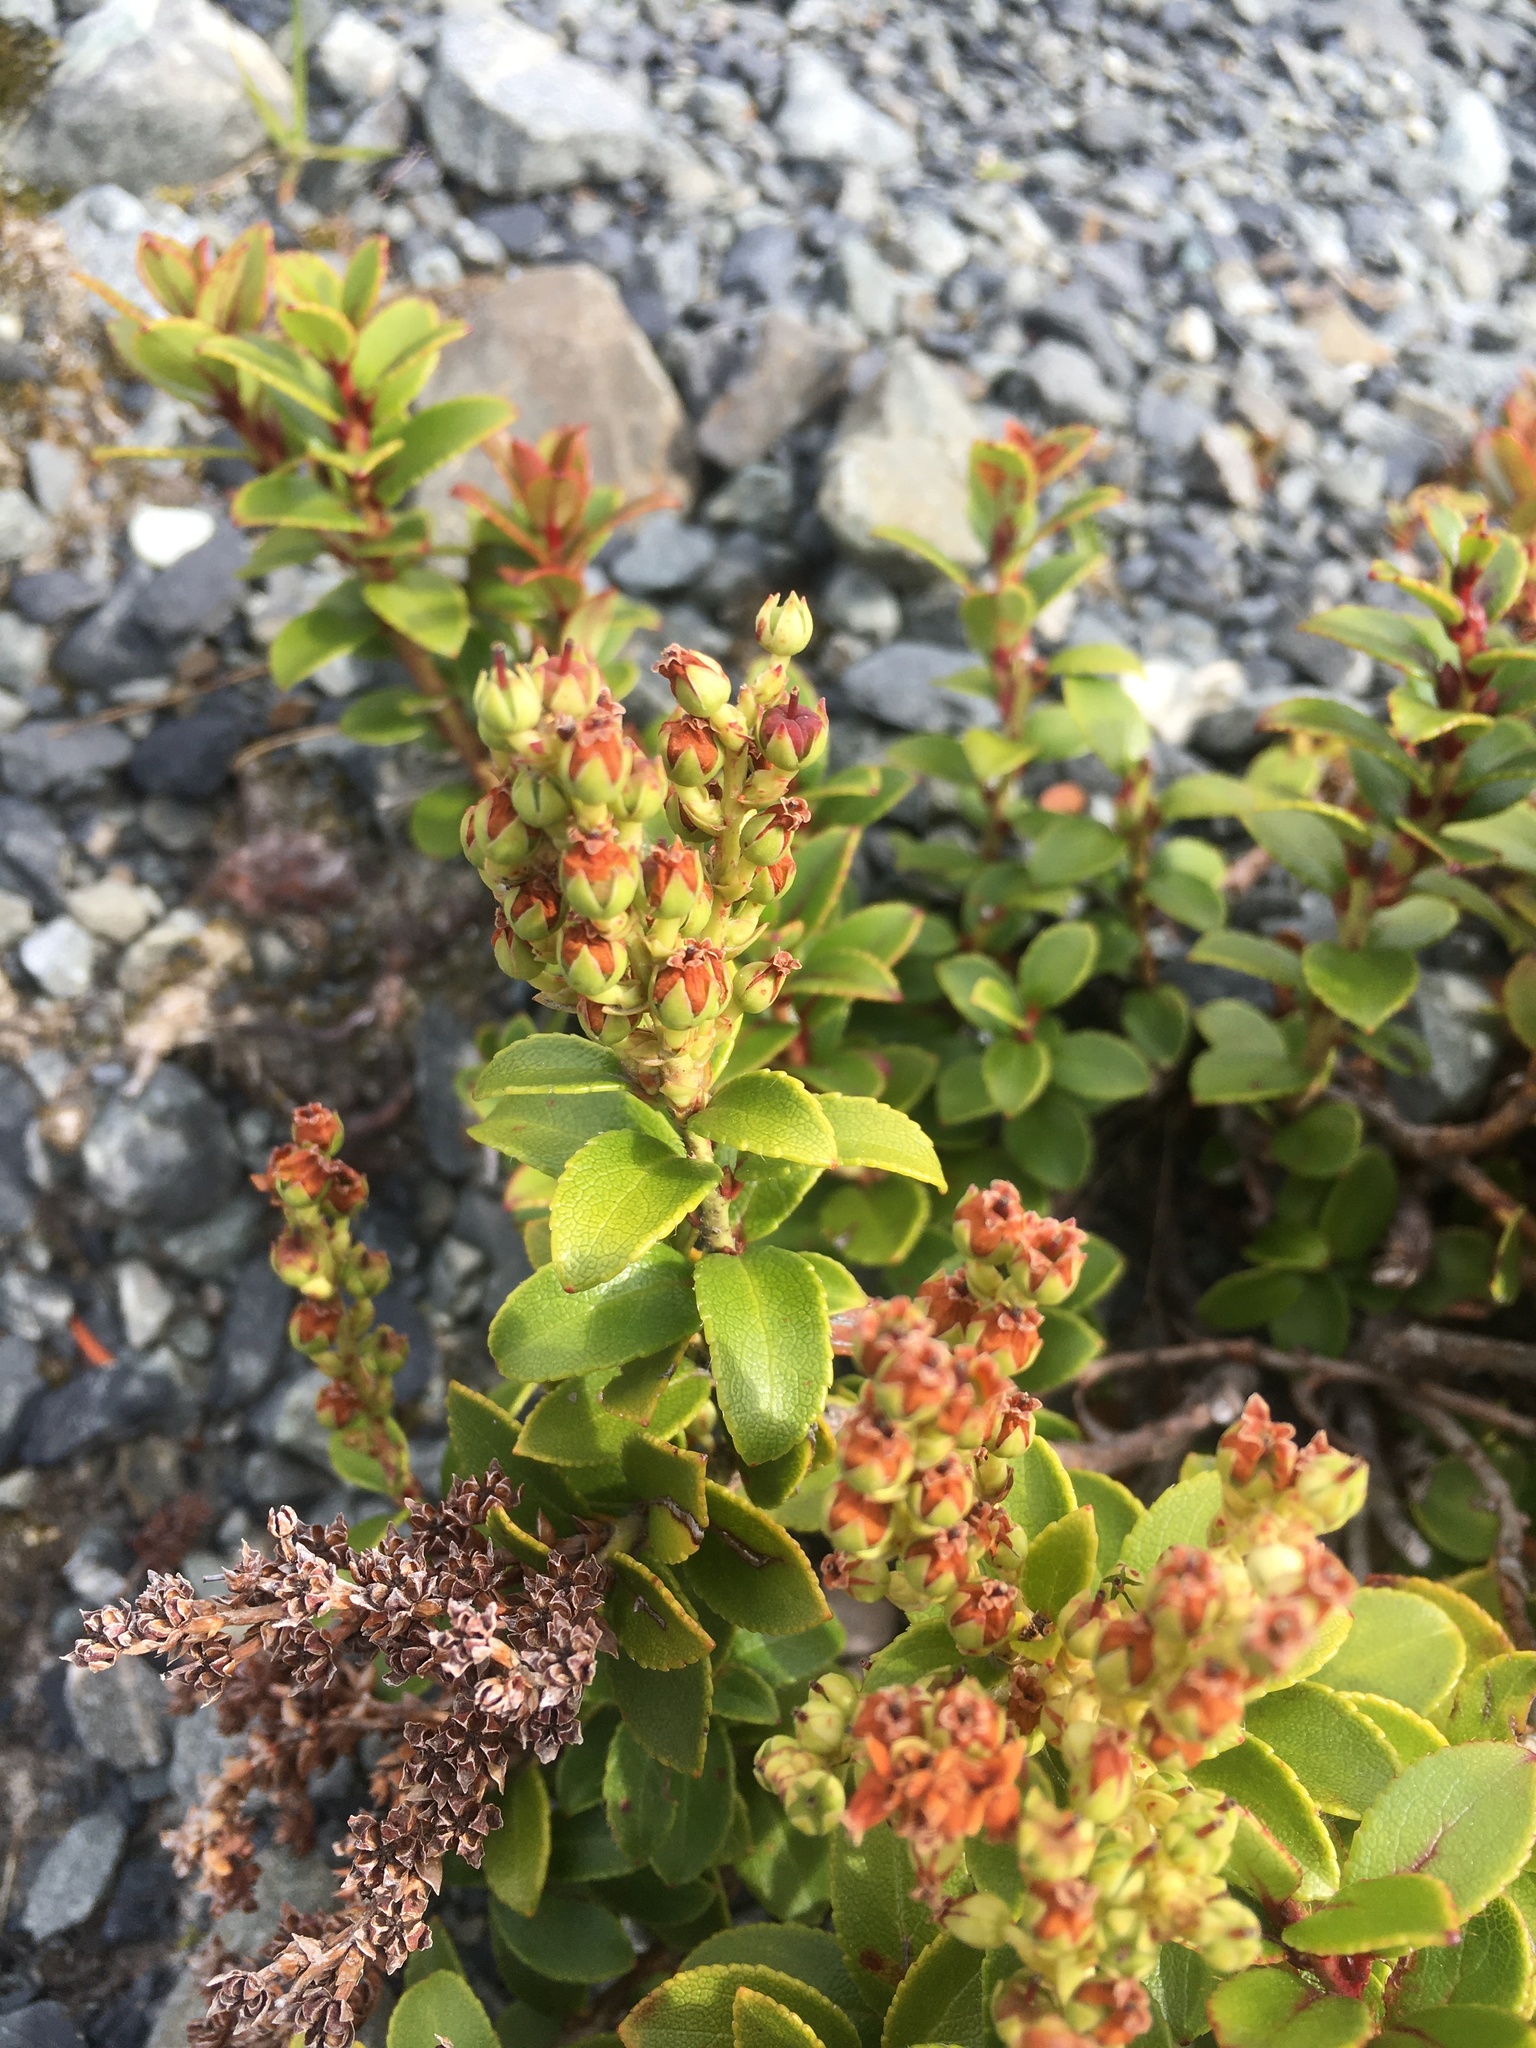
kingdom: Plantae
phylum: Tracheophyta
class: Magnoliopsida
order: Ericales
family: Ericaceae
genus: Gaultheria
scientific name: Gaultheria crassa
